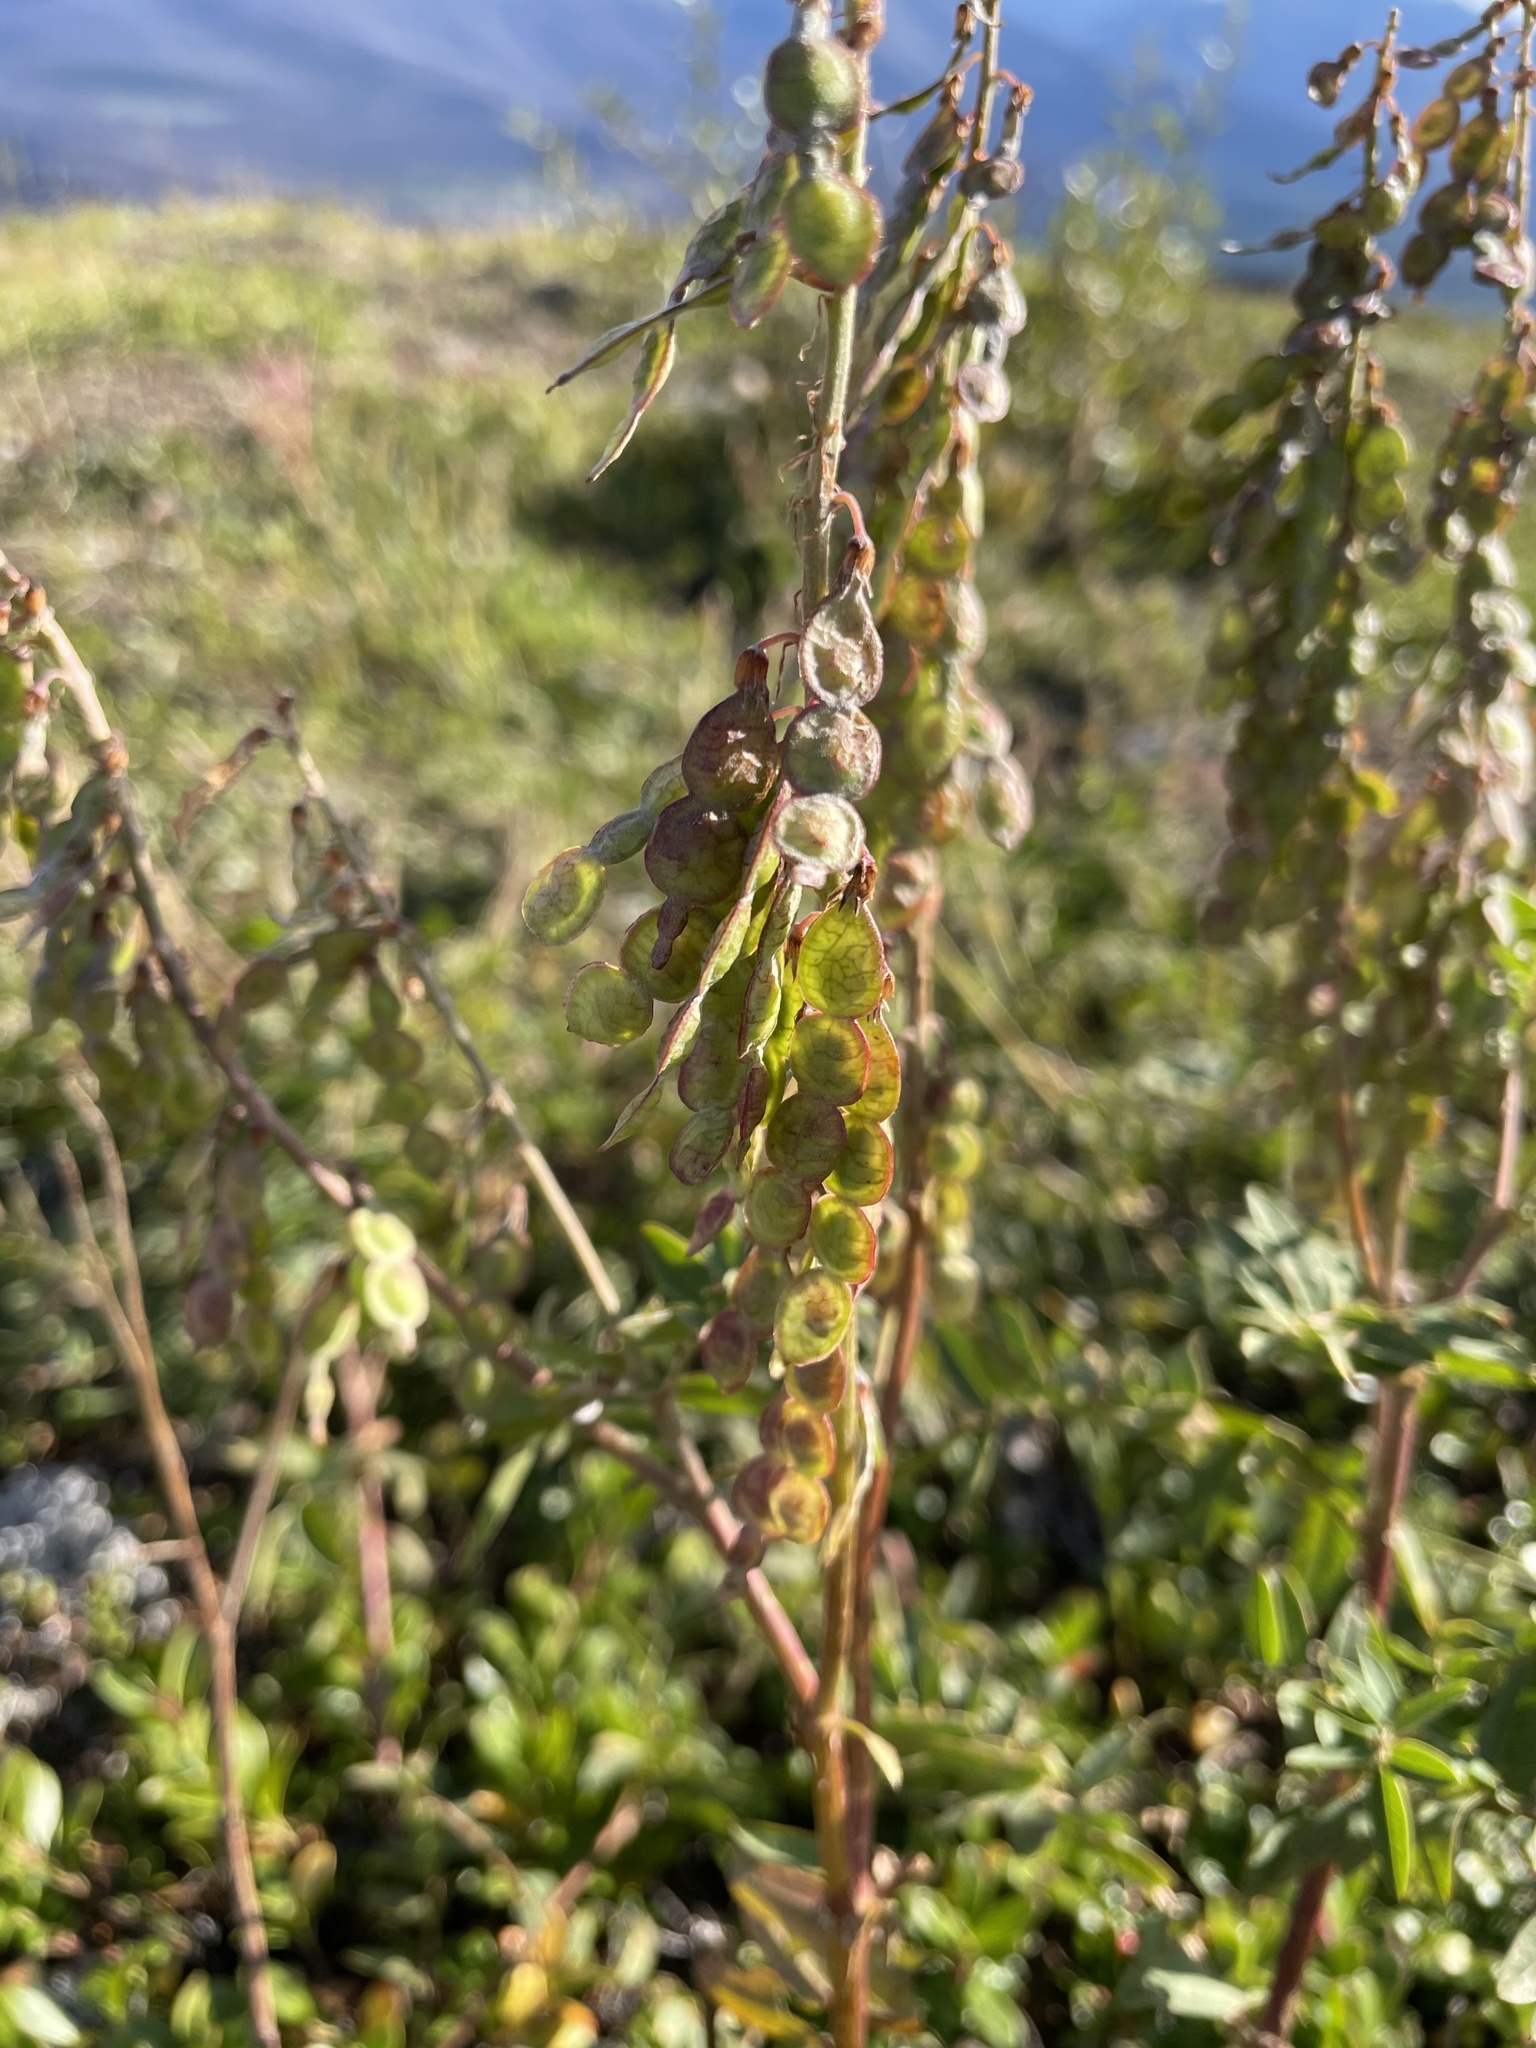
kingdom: Plantae
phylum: Tracheophyta
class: Magnoliopsida
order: Fabales
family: Fabaceae
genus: Hedysarum
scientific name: Hedysarum alpinum
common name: Alpine sweet-vetch
